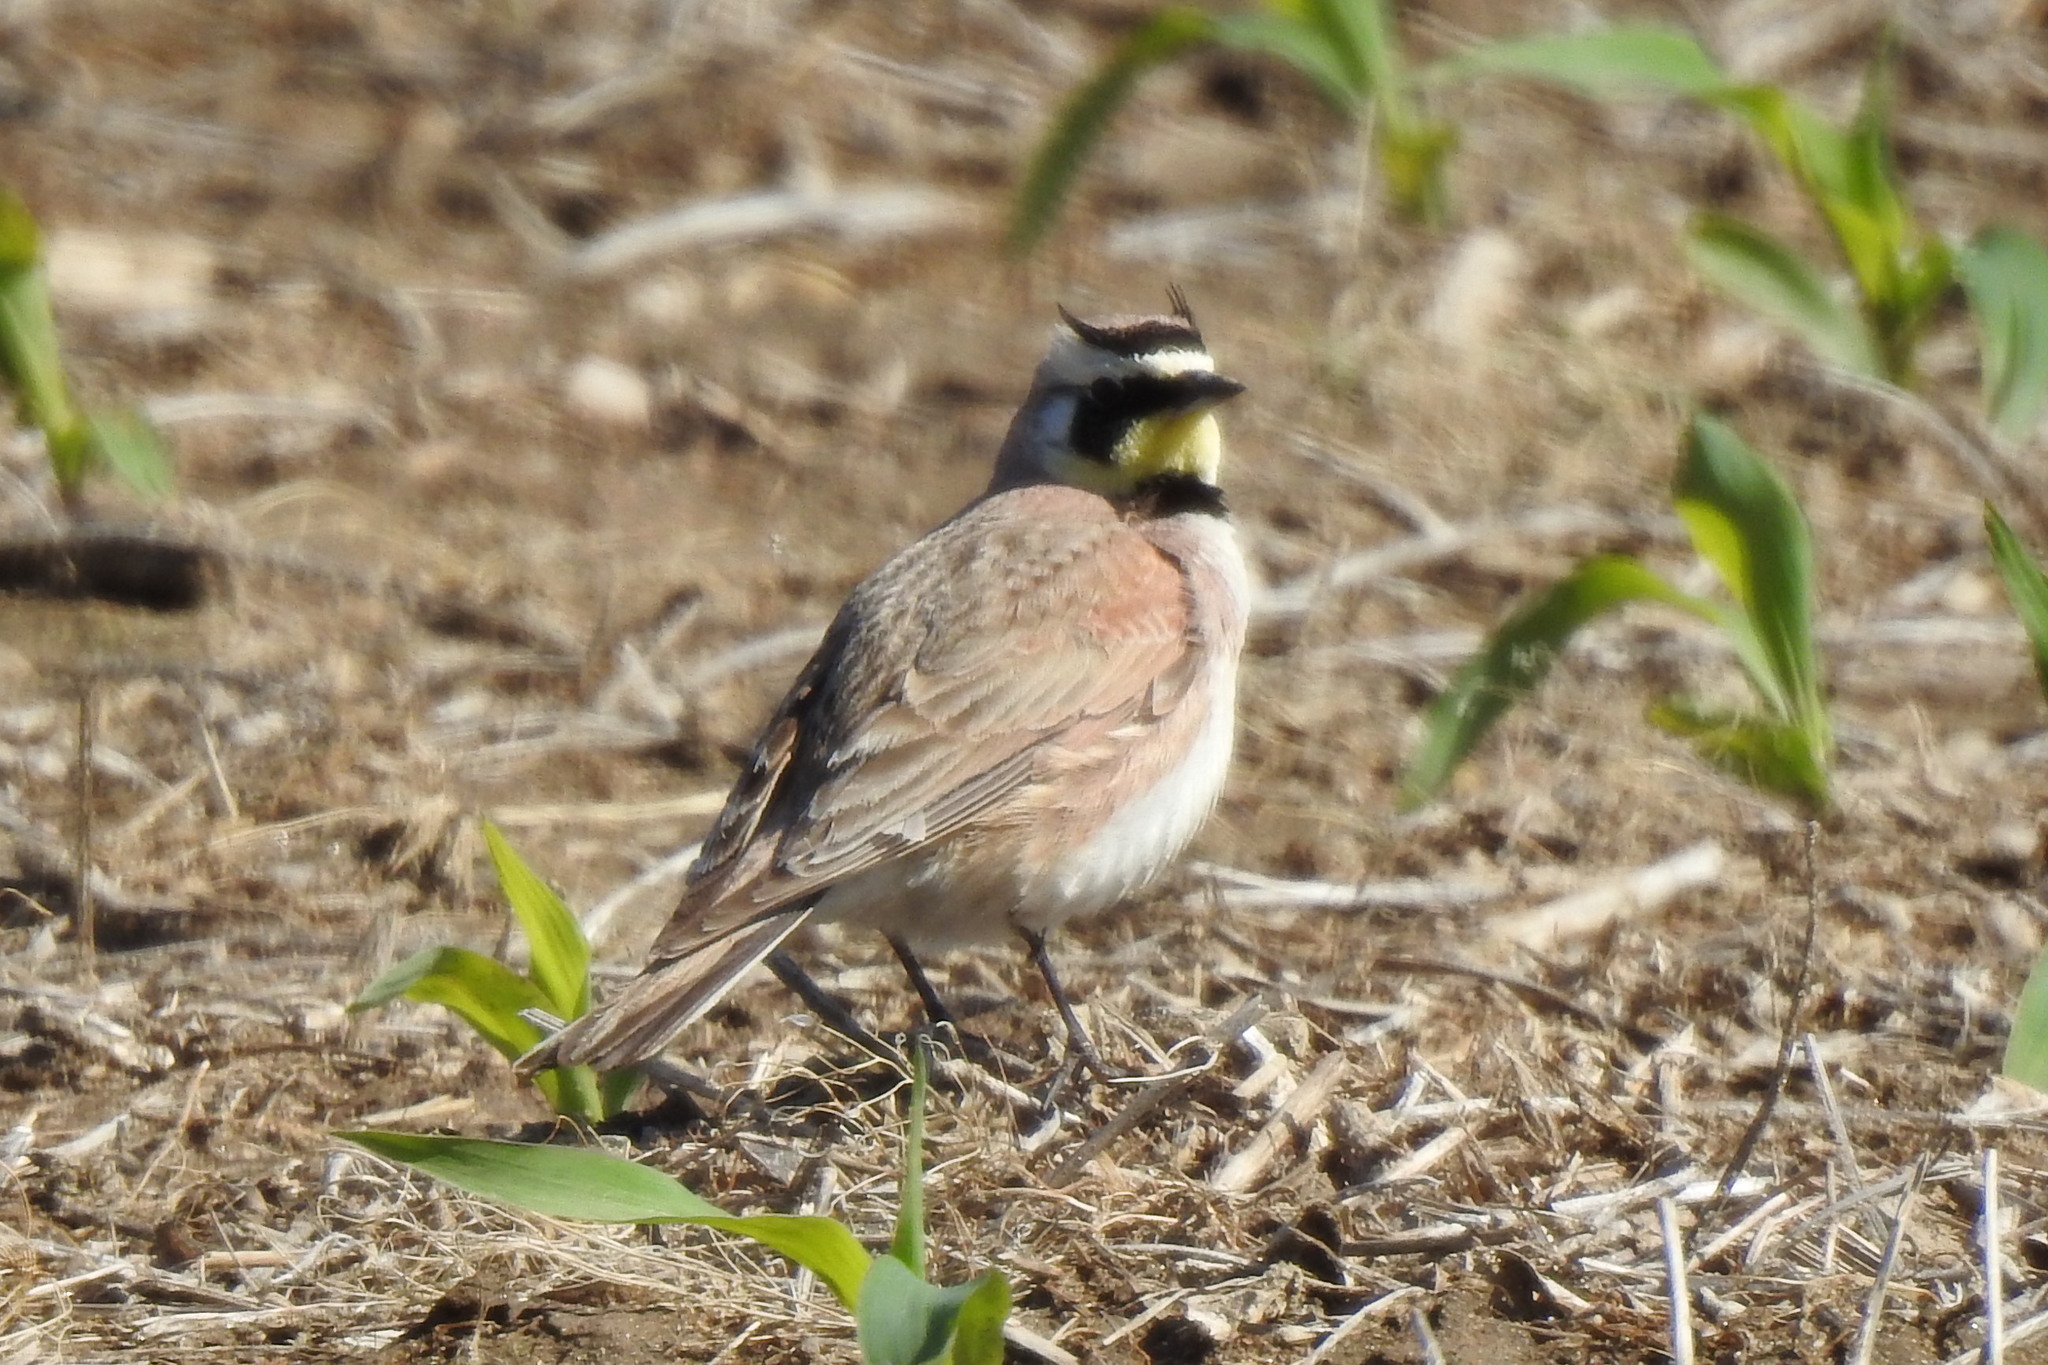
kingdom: Animalia
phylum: Chordata
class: Aves
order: Passeriformes
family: Alaudidae
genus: Eremophila
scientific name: Eremophila alpestris
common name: Horned lark
